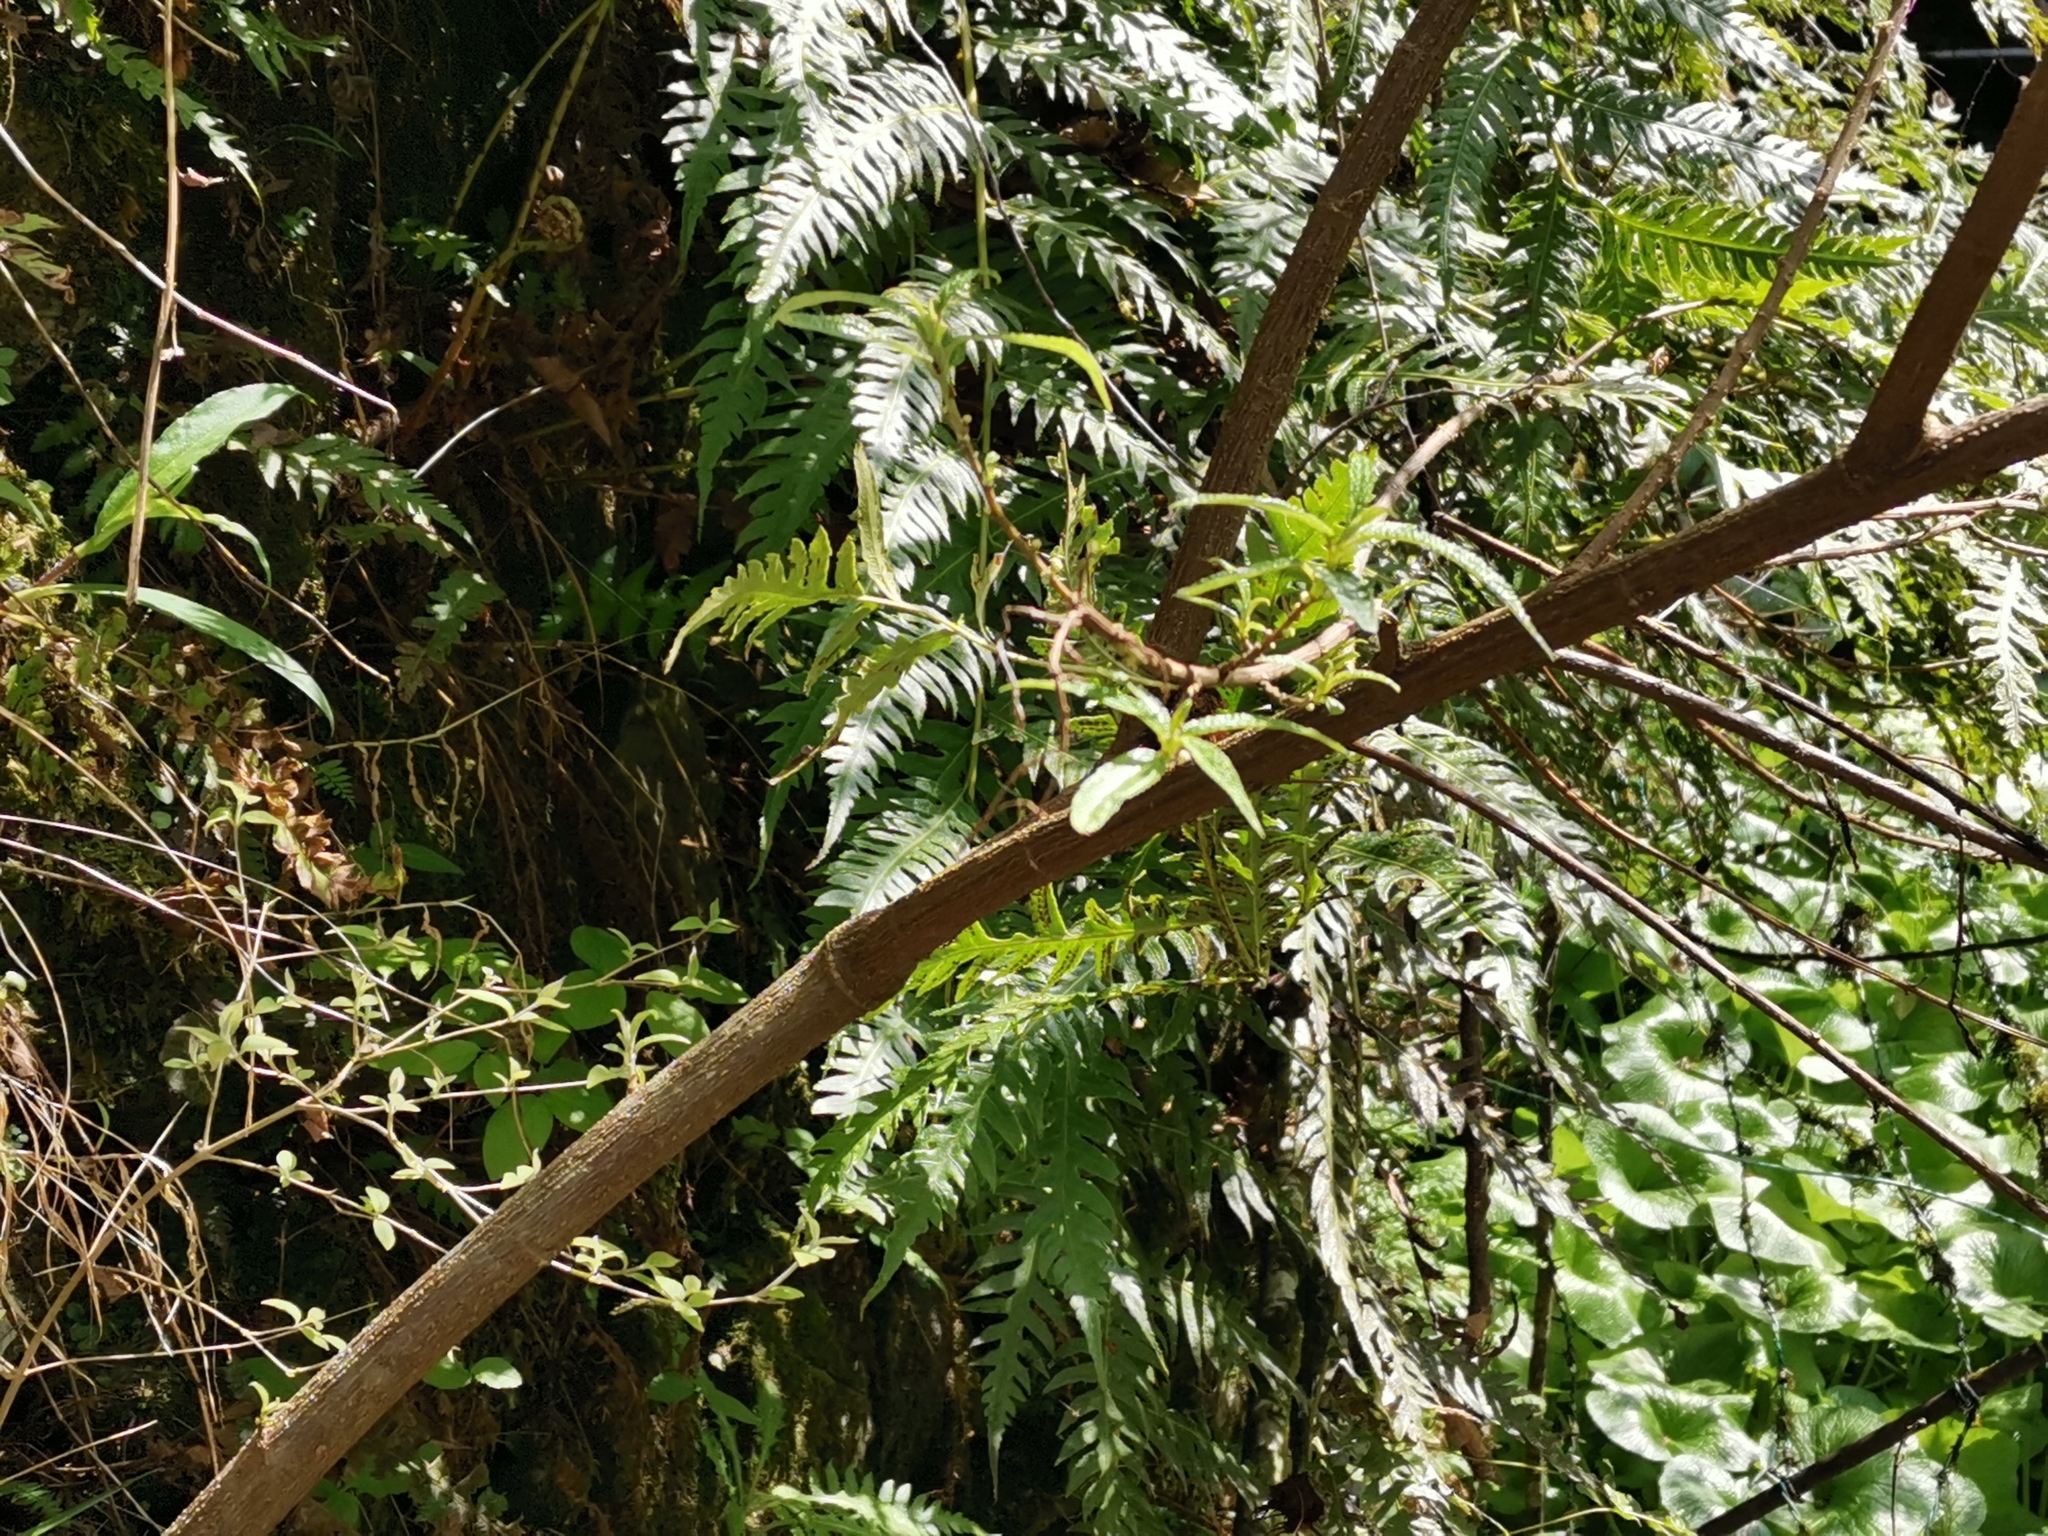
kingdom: Plantae
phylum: Tracheophyta
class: Polypodiopsida
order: Polypodiales
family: Blechnaceae
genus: Woodwardia
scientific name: Woodwardia unigemmata
